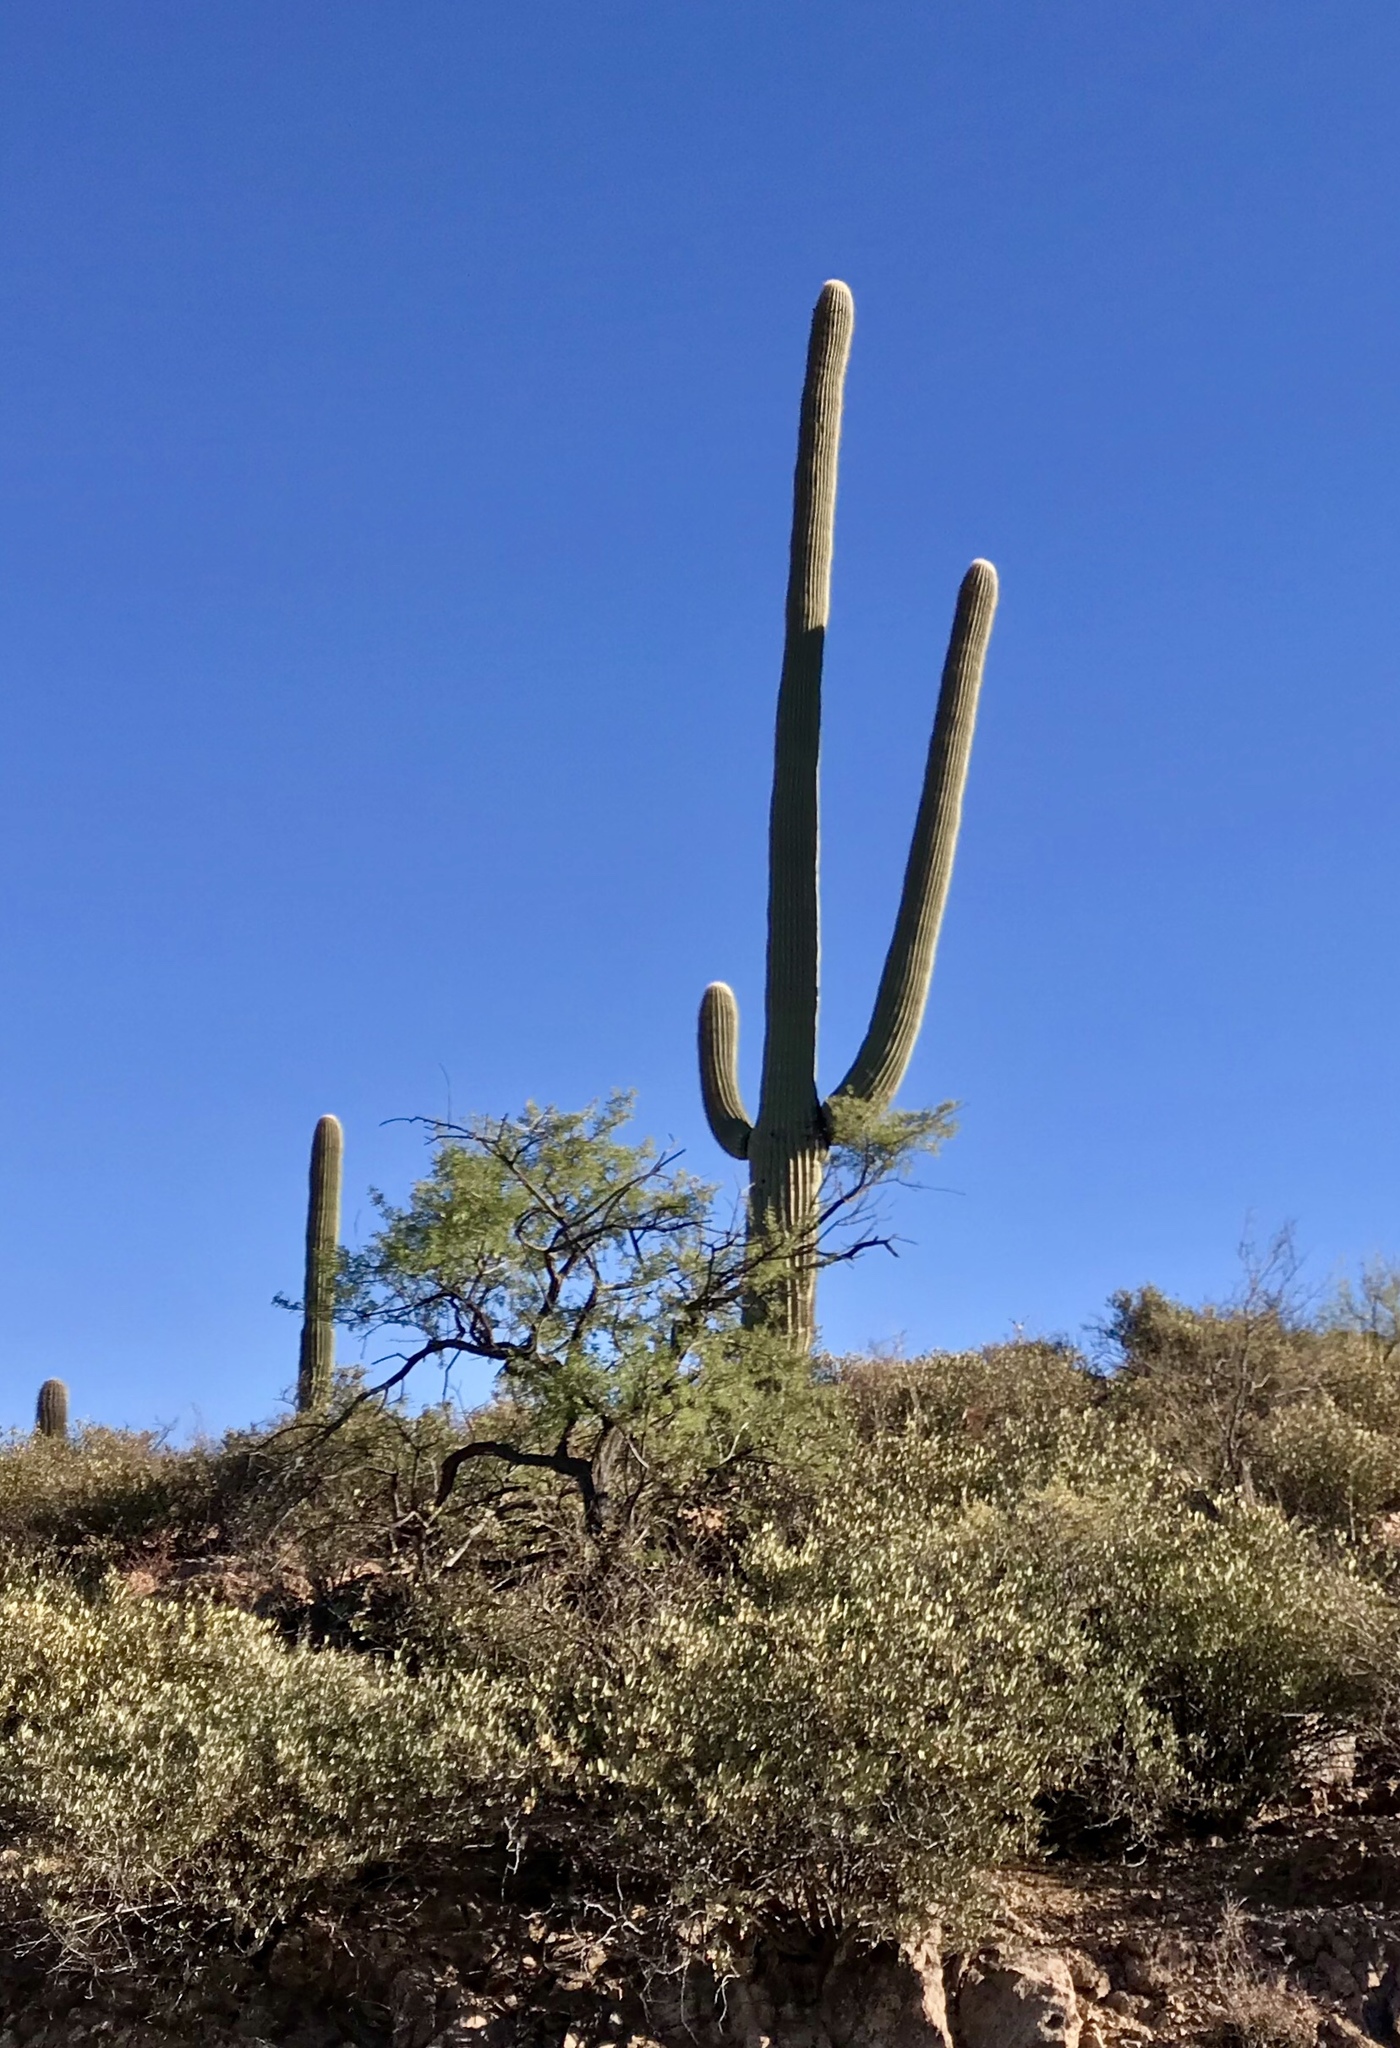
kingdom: Plantae
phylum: Tracheophyta
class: Magnoliopsida
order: Caryophyllales
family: Cactaceae
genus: Carnegiea
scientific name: Carnegiea gigantea
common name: Saguaro
